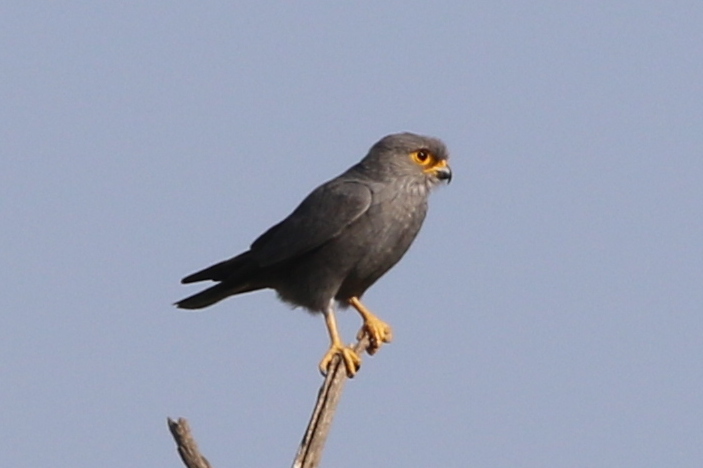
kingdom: Animalia
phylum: Chordata
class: Aves
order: Falconiformes
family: Falconidae
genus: Falco
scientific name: Falco ardosiaceus
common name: Grey kestrel
